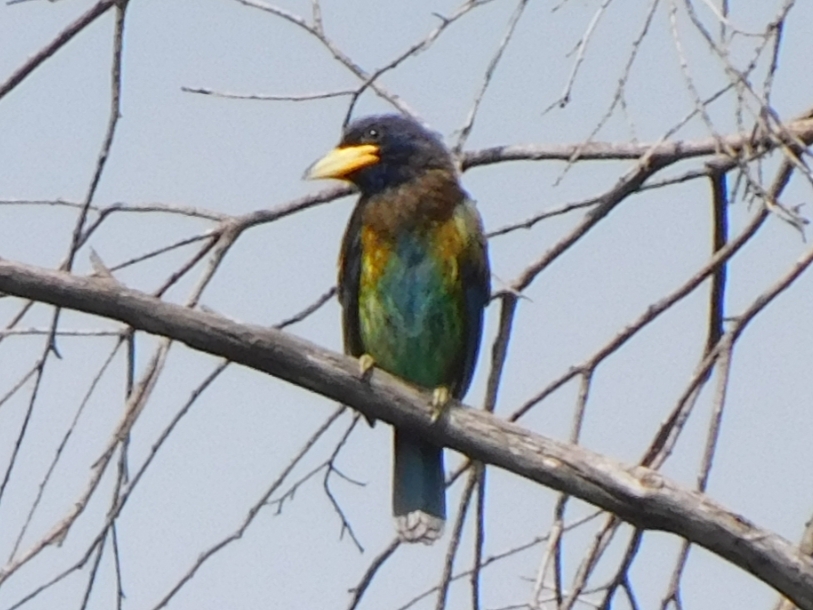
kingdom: Animalia
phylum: Chordata
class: Aves
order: Piciformes
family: Megalaimidae
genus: Psilopogon
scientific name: Psilopogon virens
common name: Great barbet
